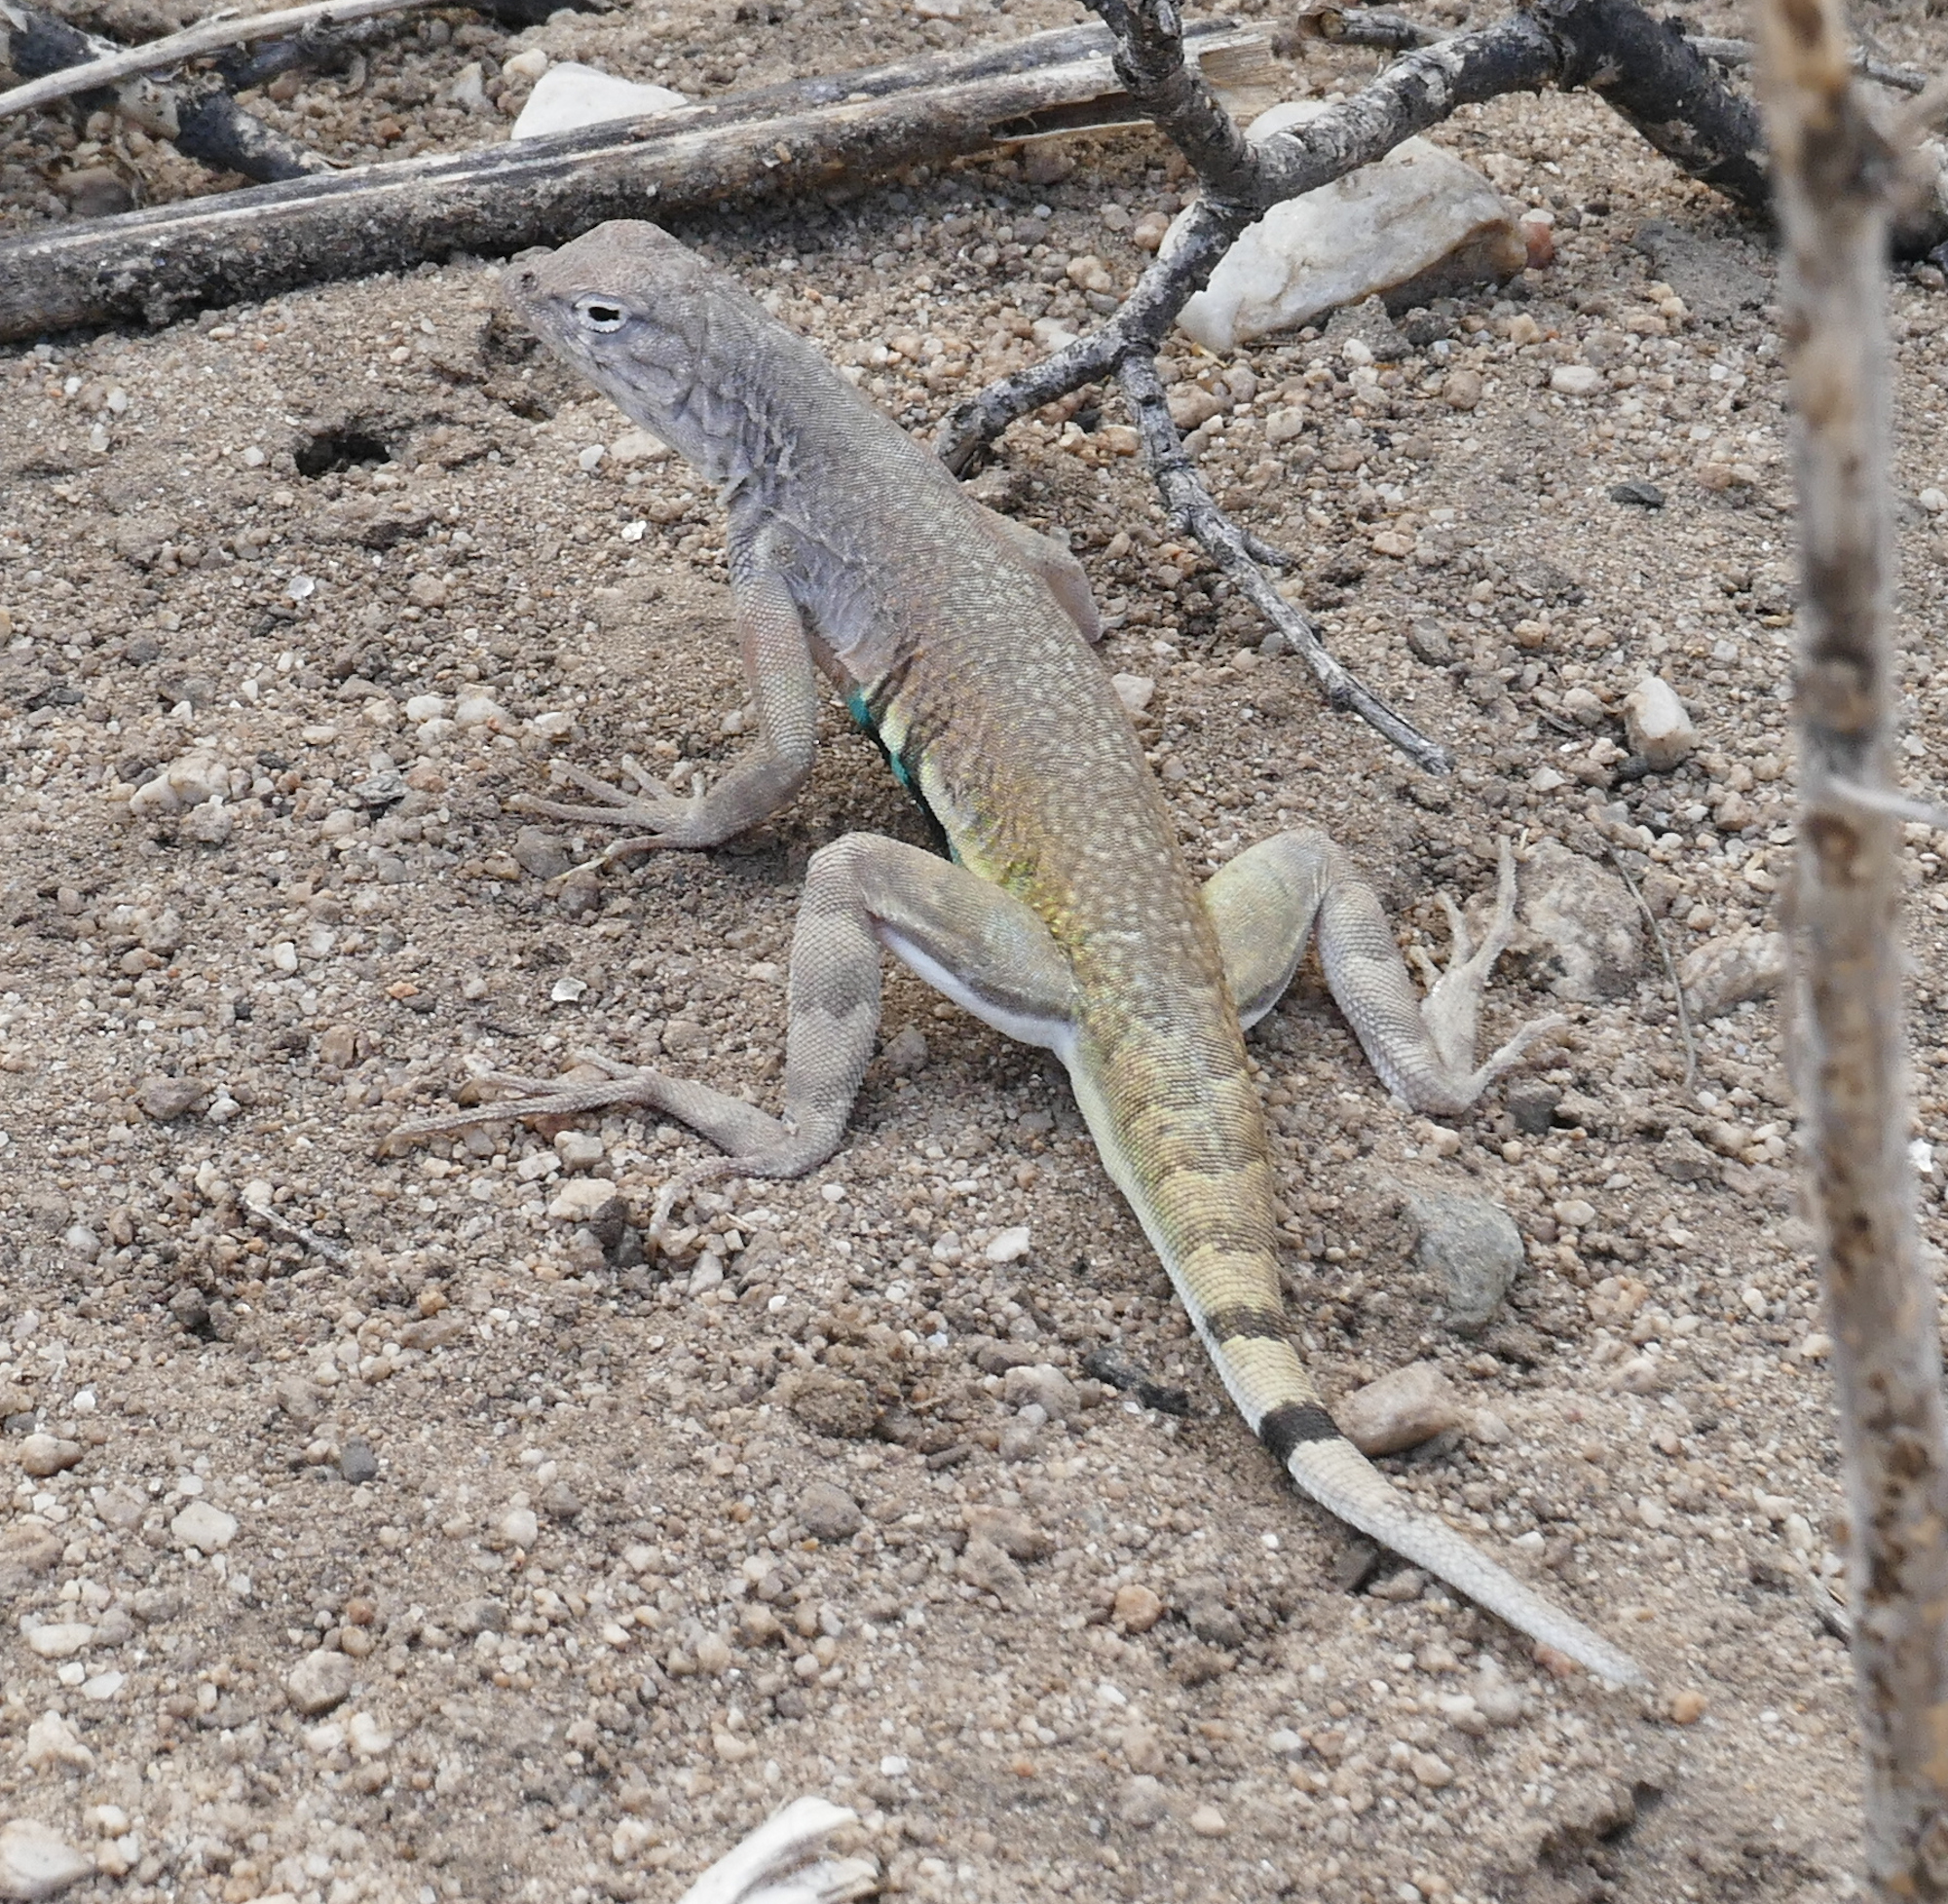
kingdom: Animalia
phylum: Chordata
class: Squamata
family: Phrynosomatidae
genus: Callisaurus
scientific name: Callisaurus draconoides
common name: Zebra-tailed lizard
